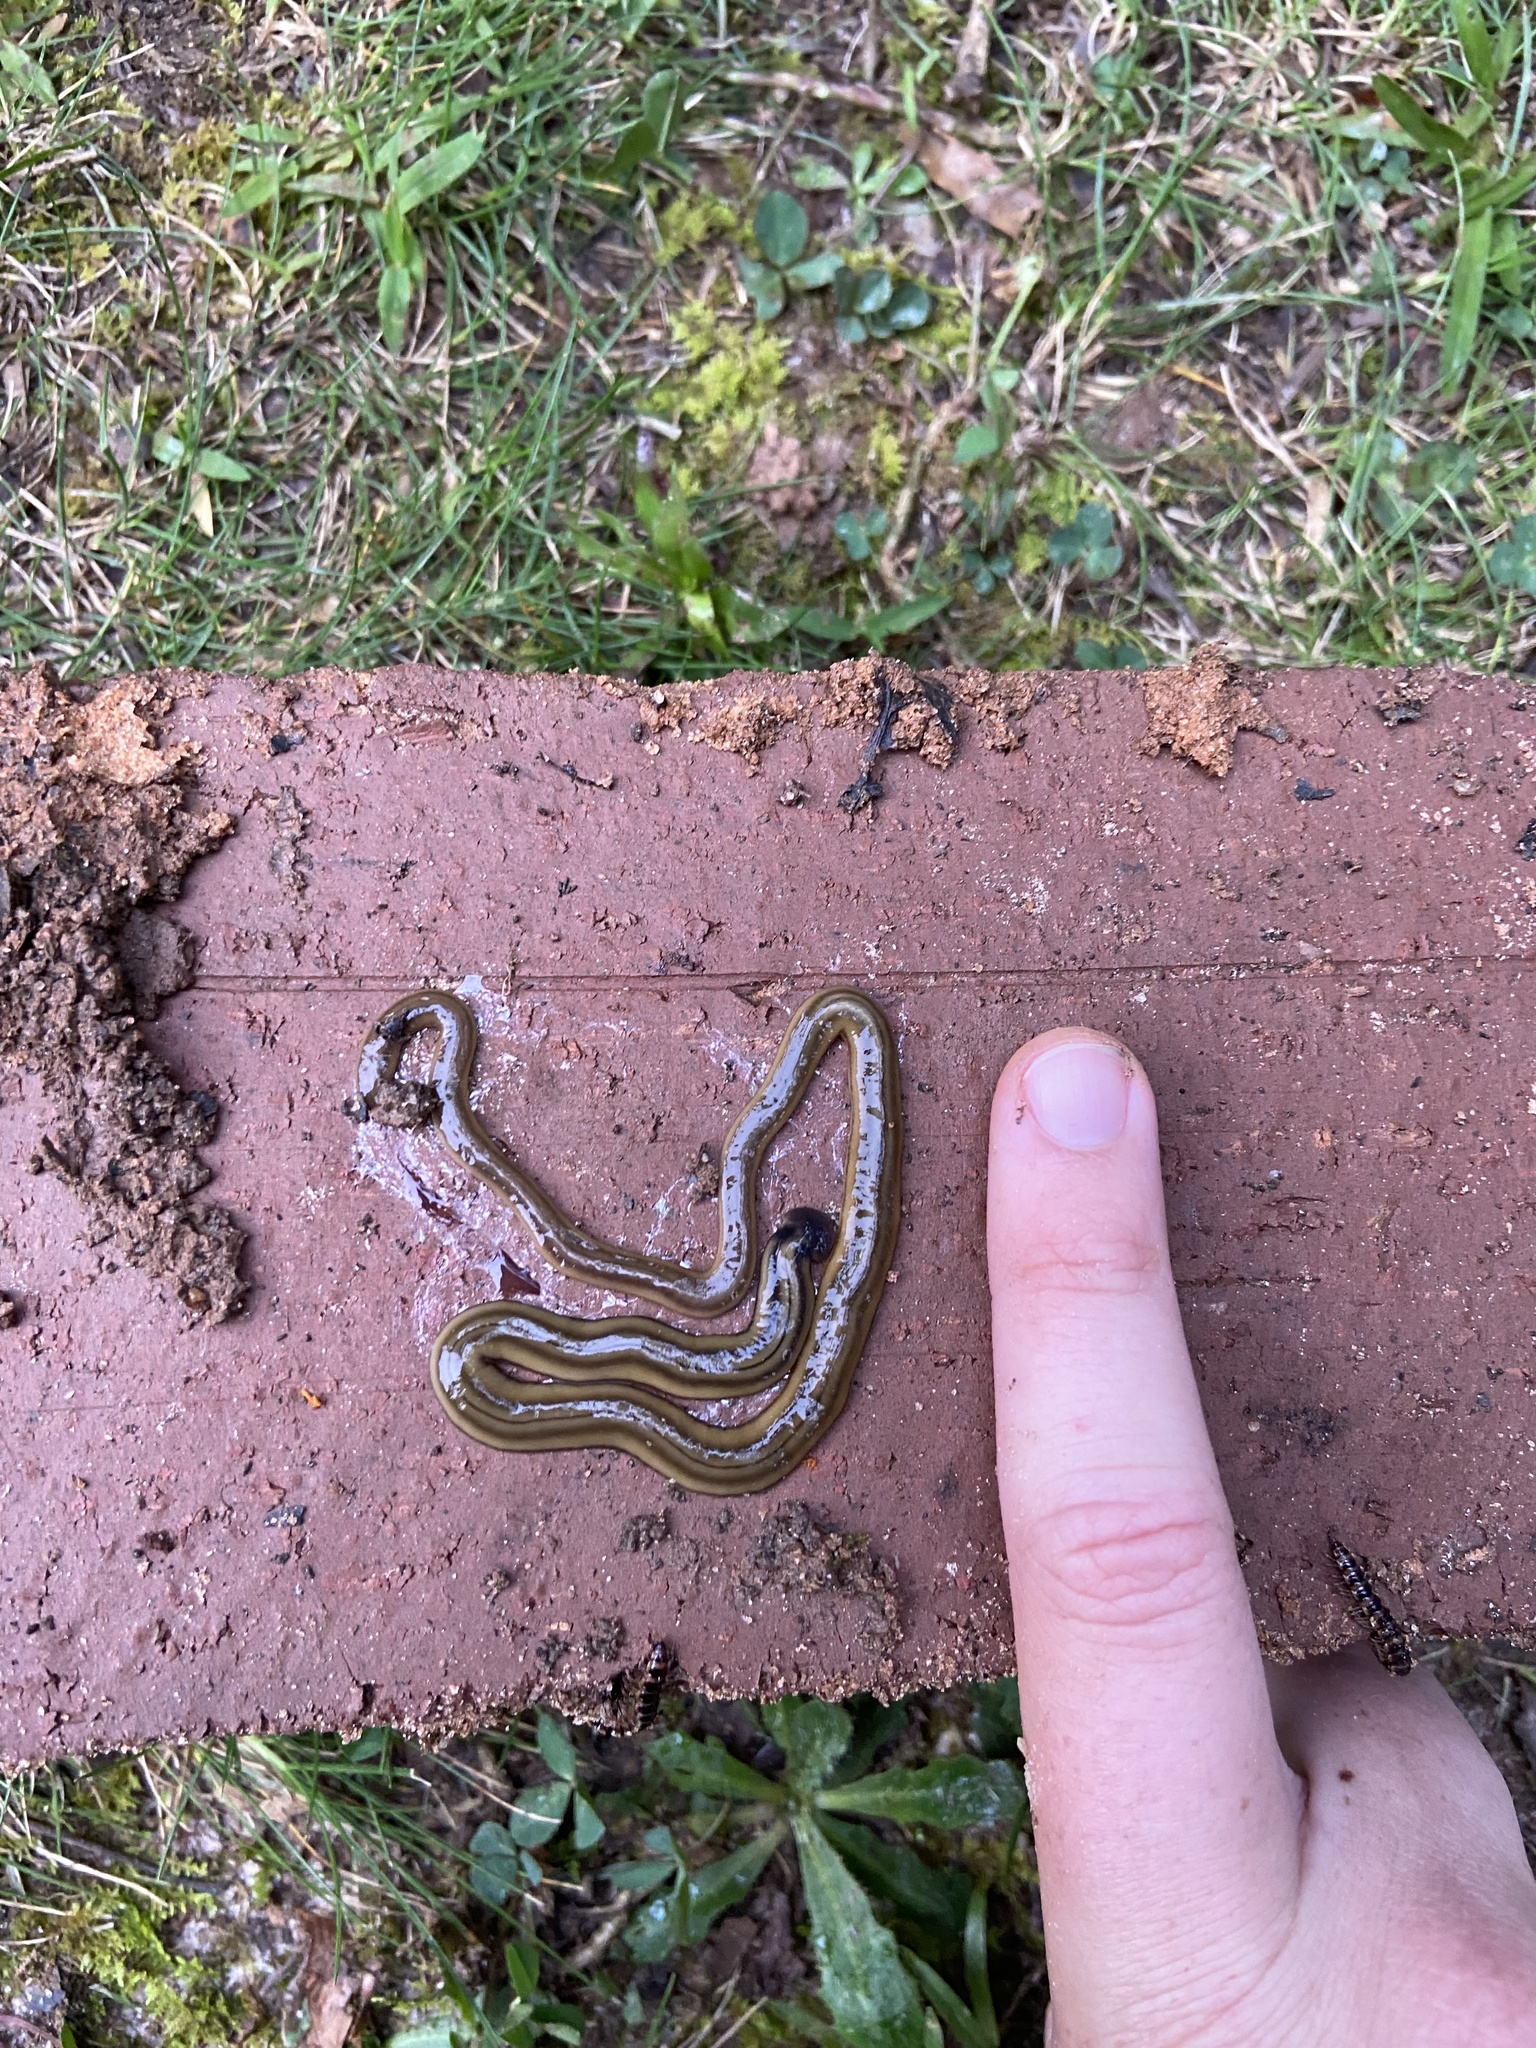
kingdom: Animalia
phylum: Platyhelminthes
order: Tricladida
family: Geoplanidae
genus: Bipalium
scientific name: Bipalium kewense
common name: Hammerhead flatworm
